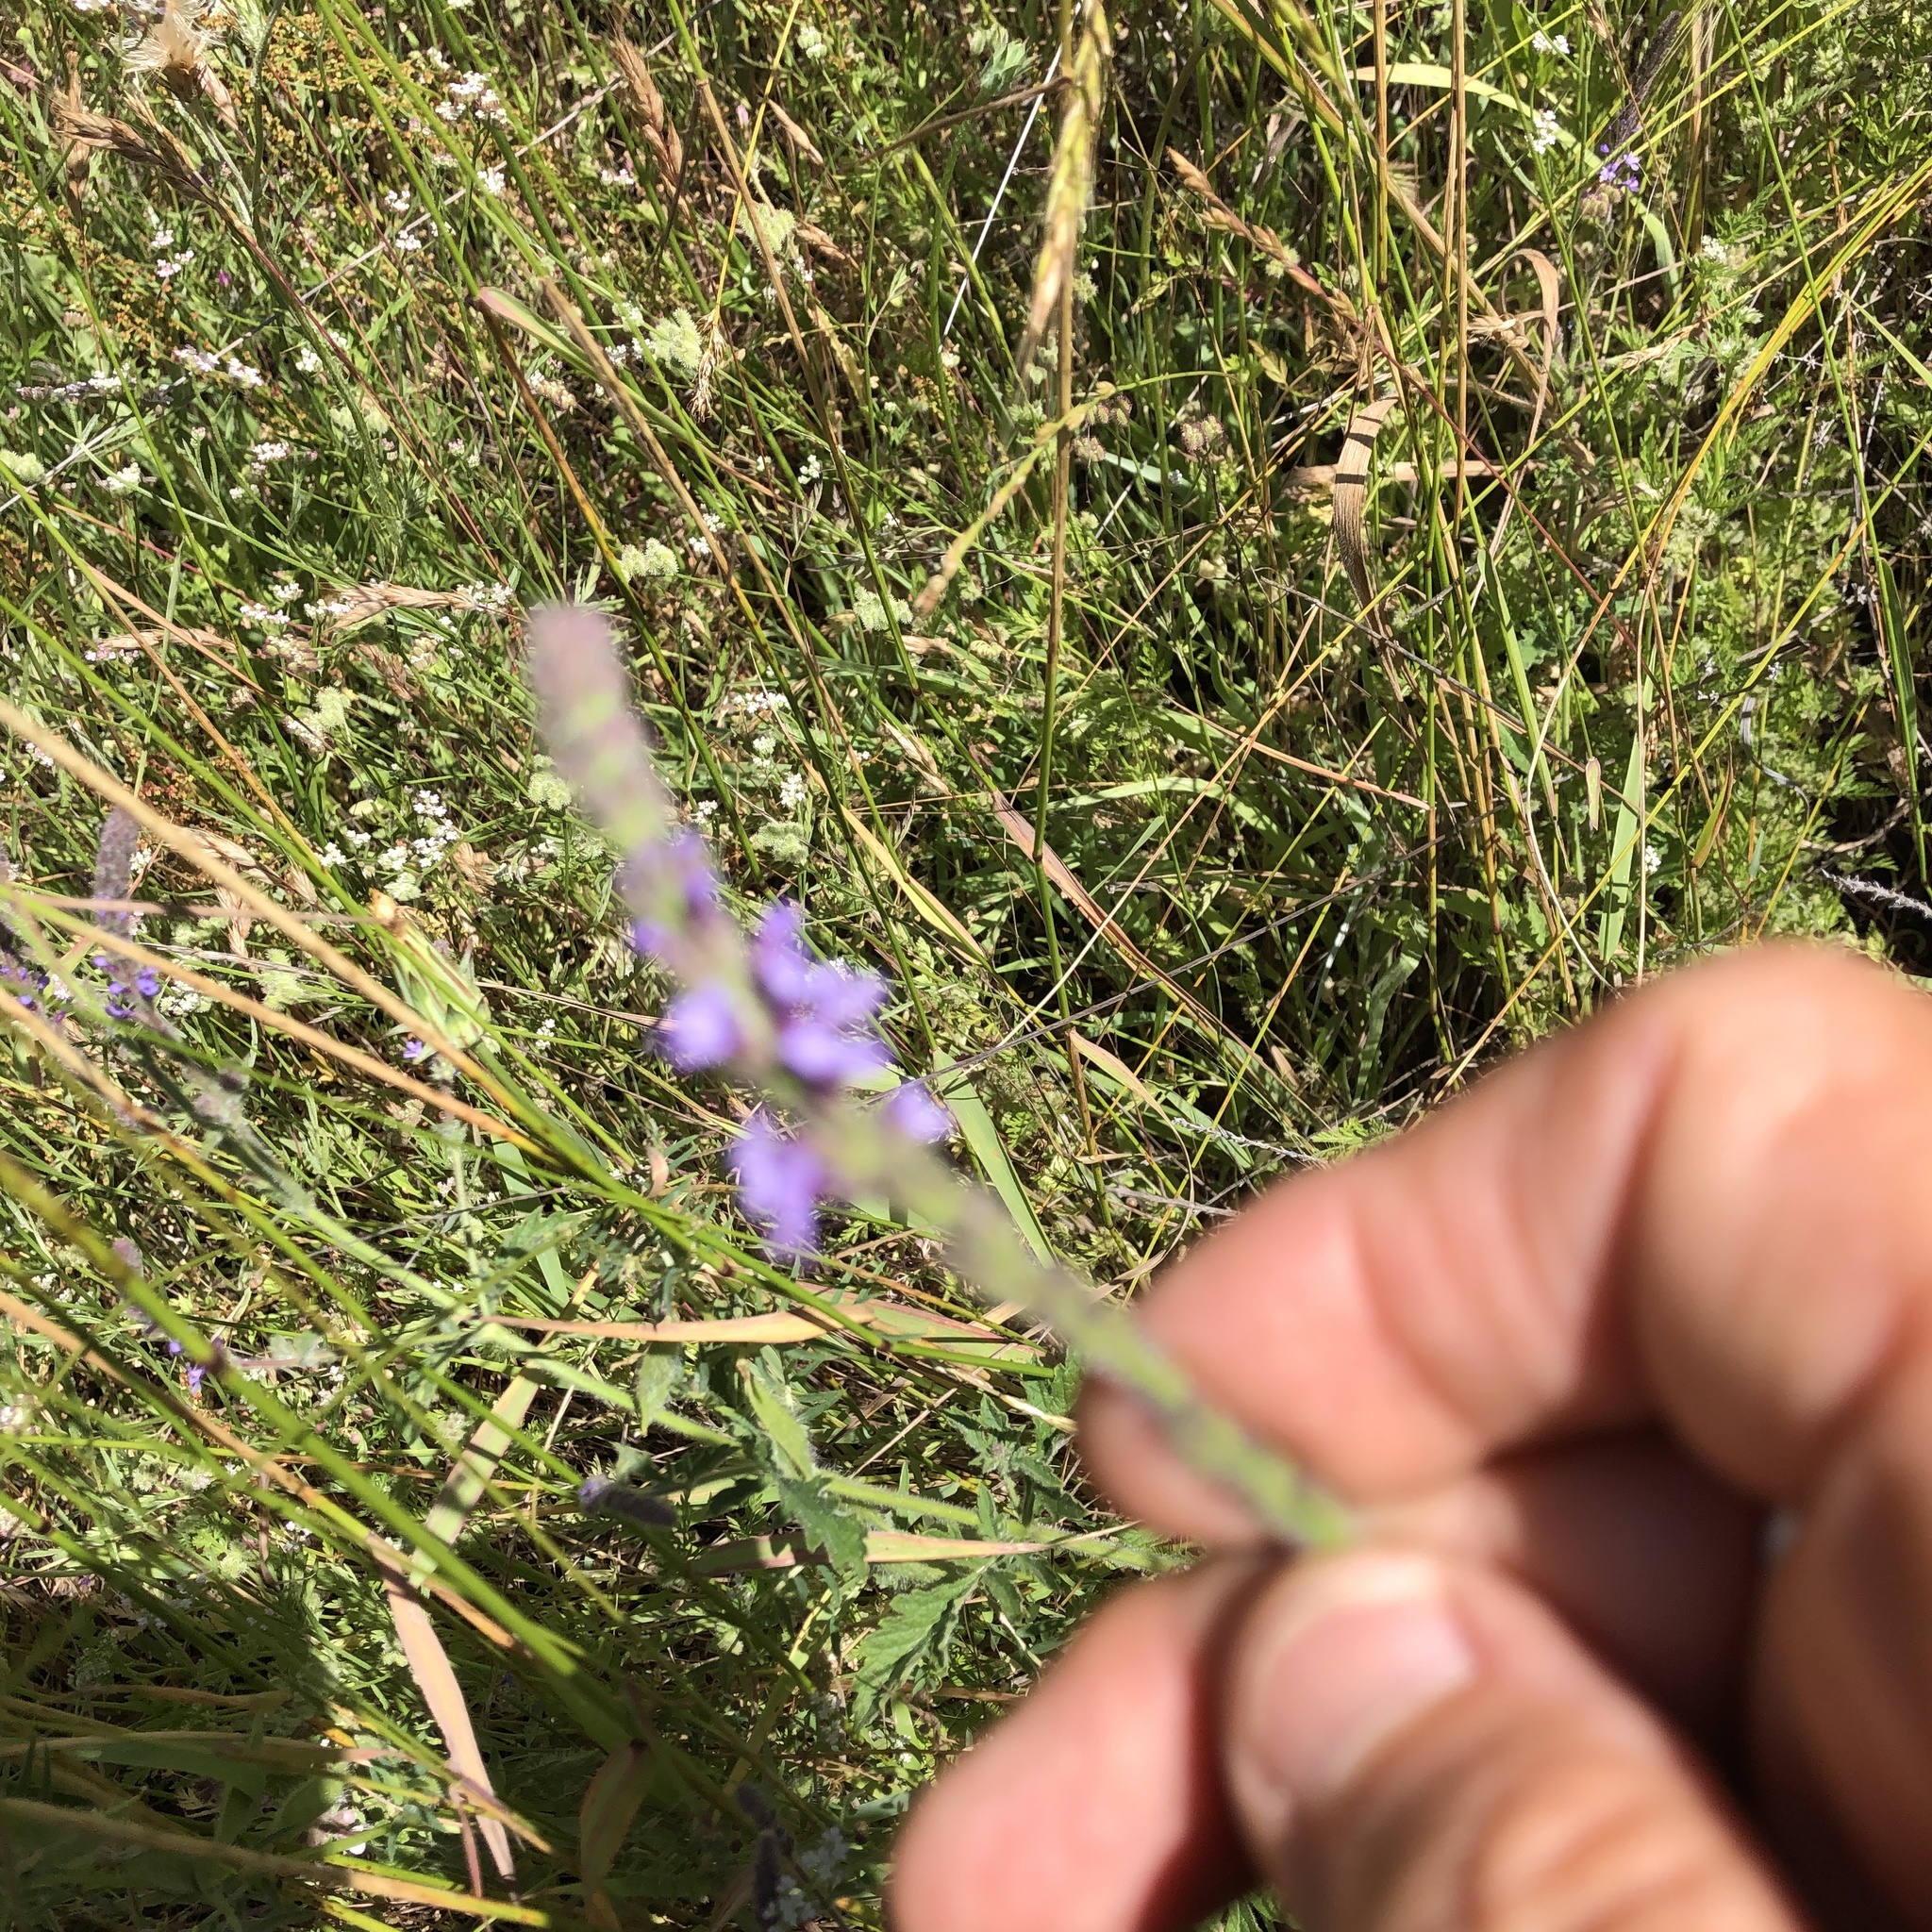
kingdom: Plantae
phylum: Tracheophyta
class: Magnoliopsida
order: Lamiales
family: Verbenaceae
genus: Verbena
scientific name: Verbena lasiostachys
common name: Vervain
